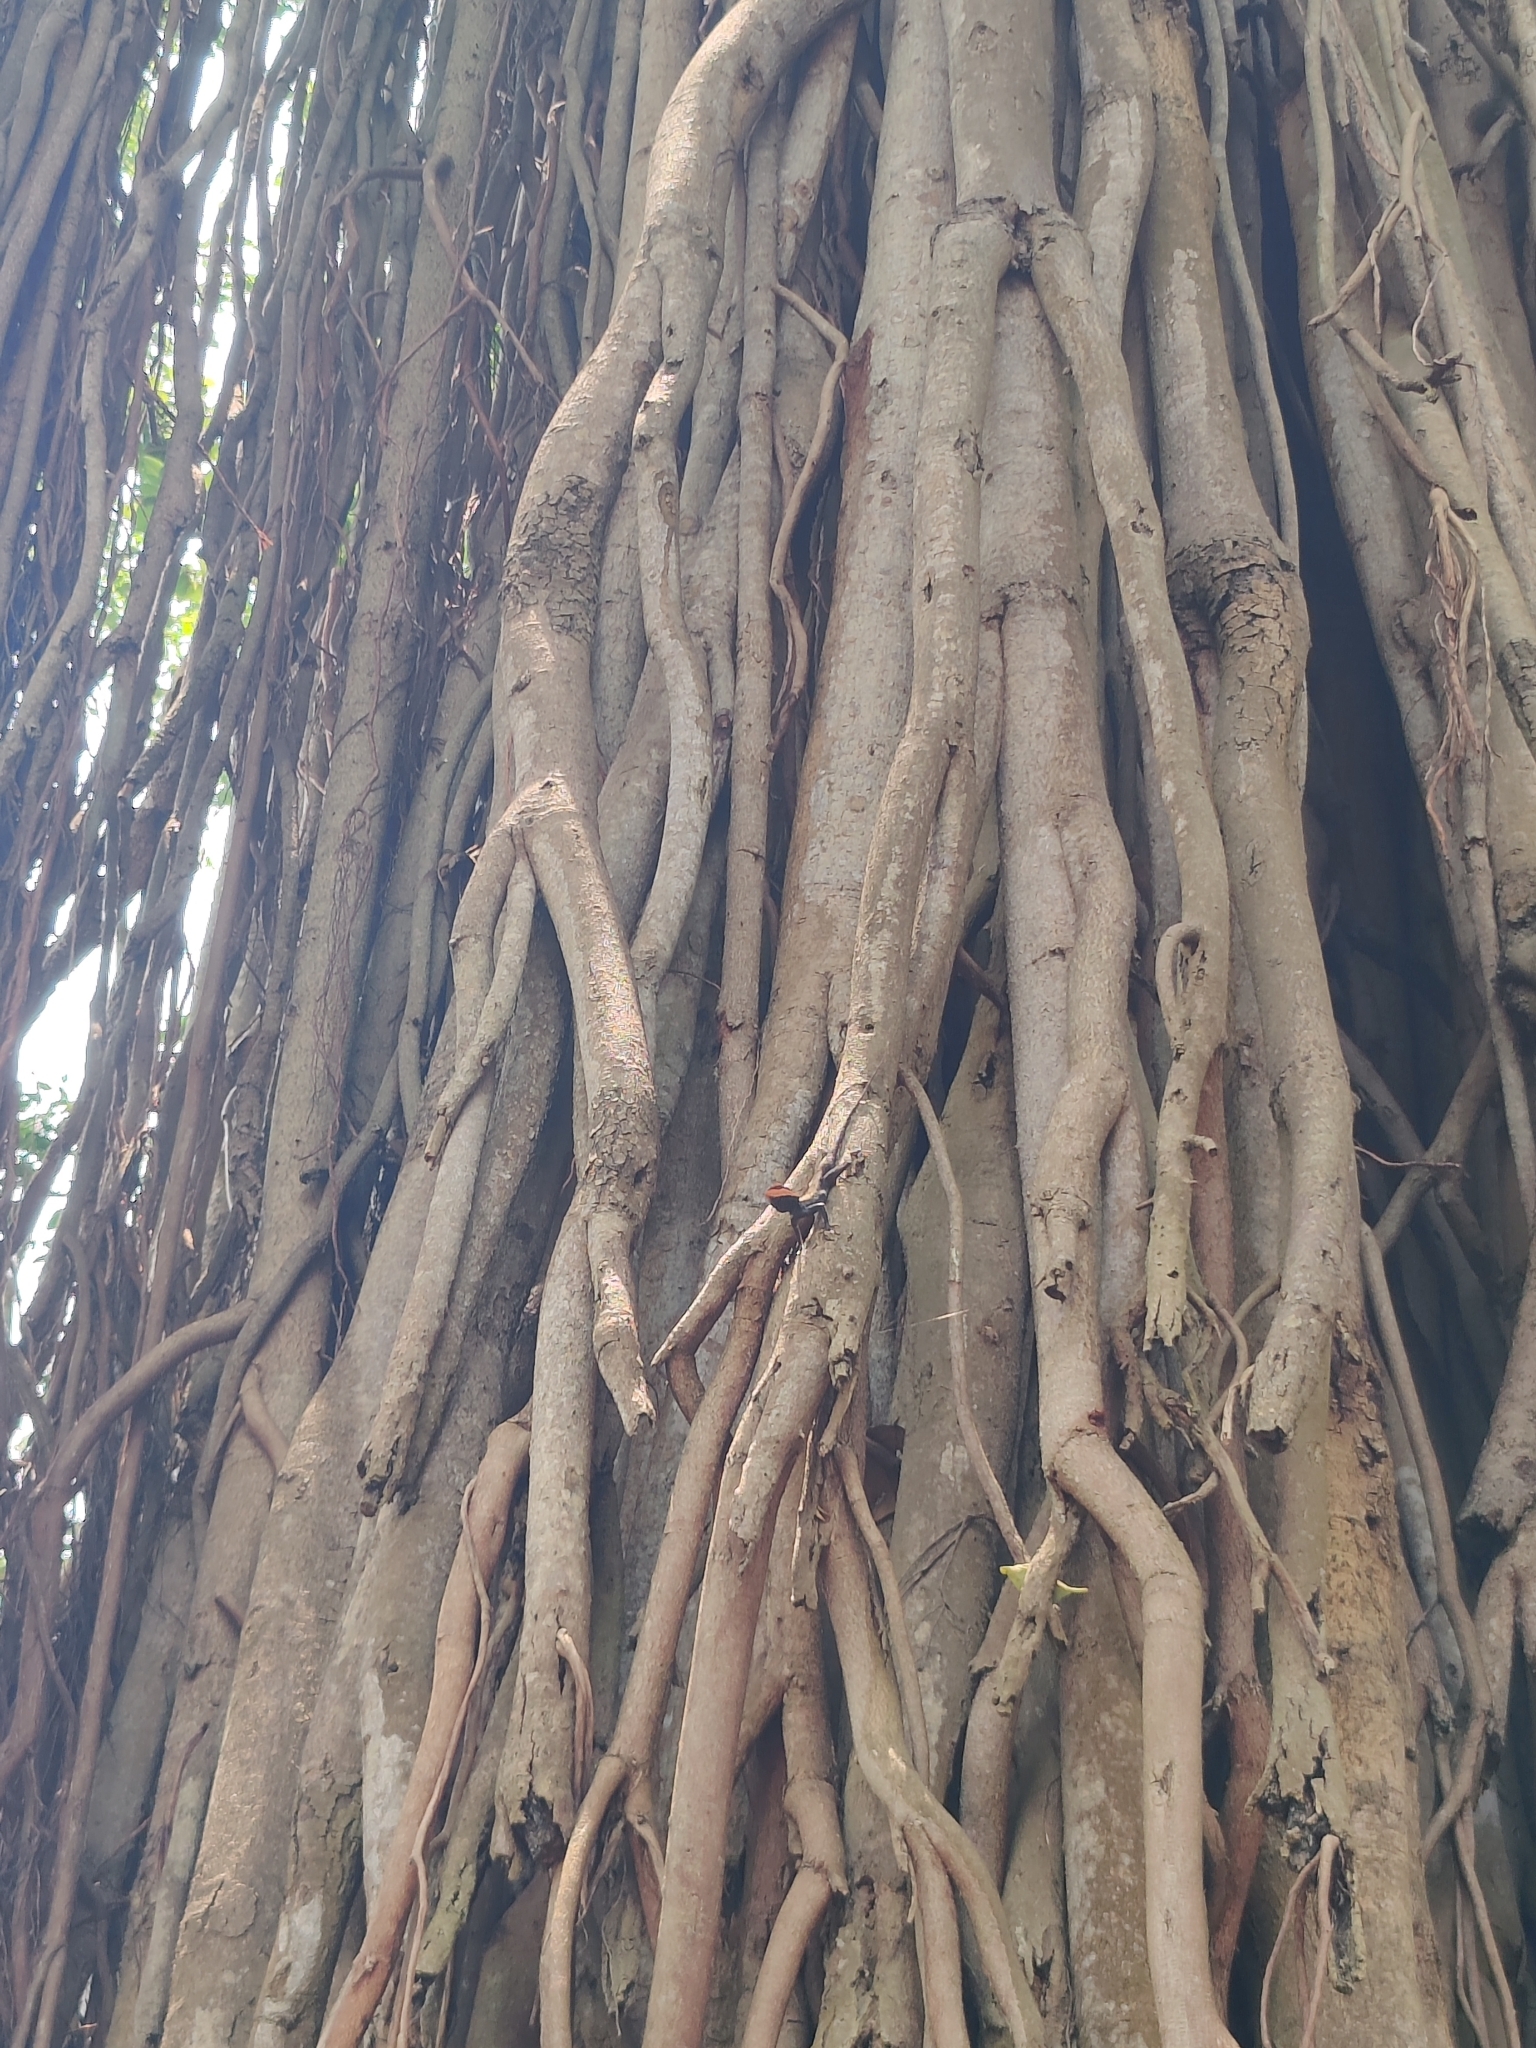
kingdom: Animalia
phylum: Chordata
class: Squamata
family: Agamidae
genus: Psammophilus
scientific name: Psammophilus dorsalis
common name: South indian rock agama
